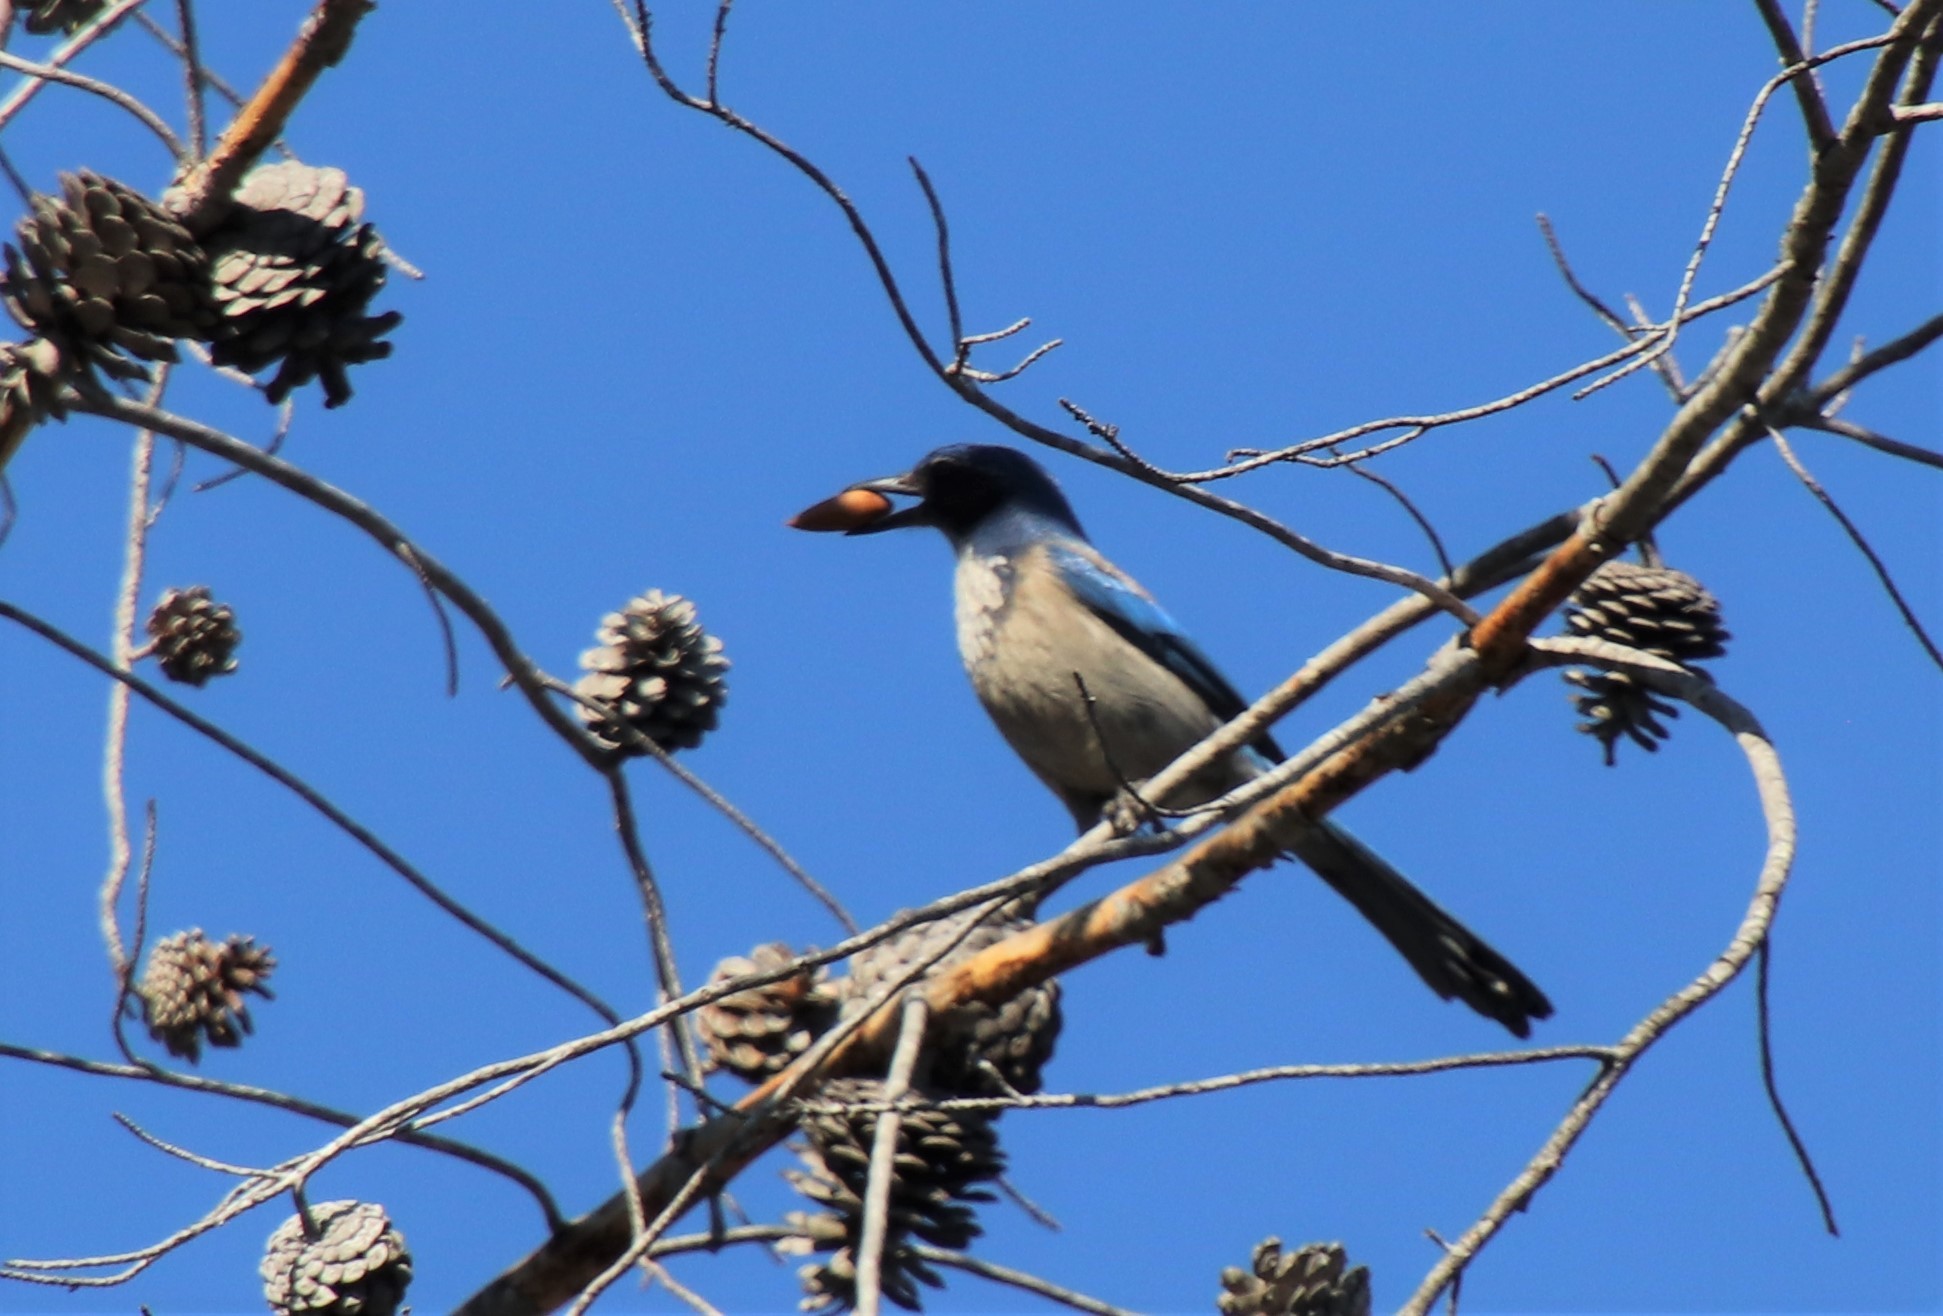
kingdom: Animalia
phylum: Chordata
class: Aves
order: Passeriformes
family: Corvidae
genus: Aphelocoma
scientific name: Aphelocoma californica
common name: California scrub-jay
